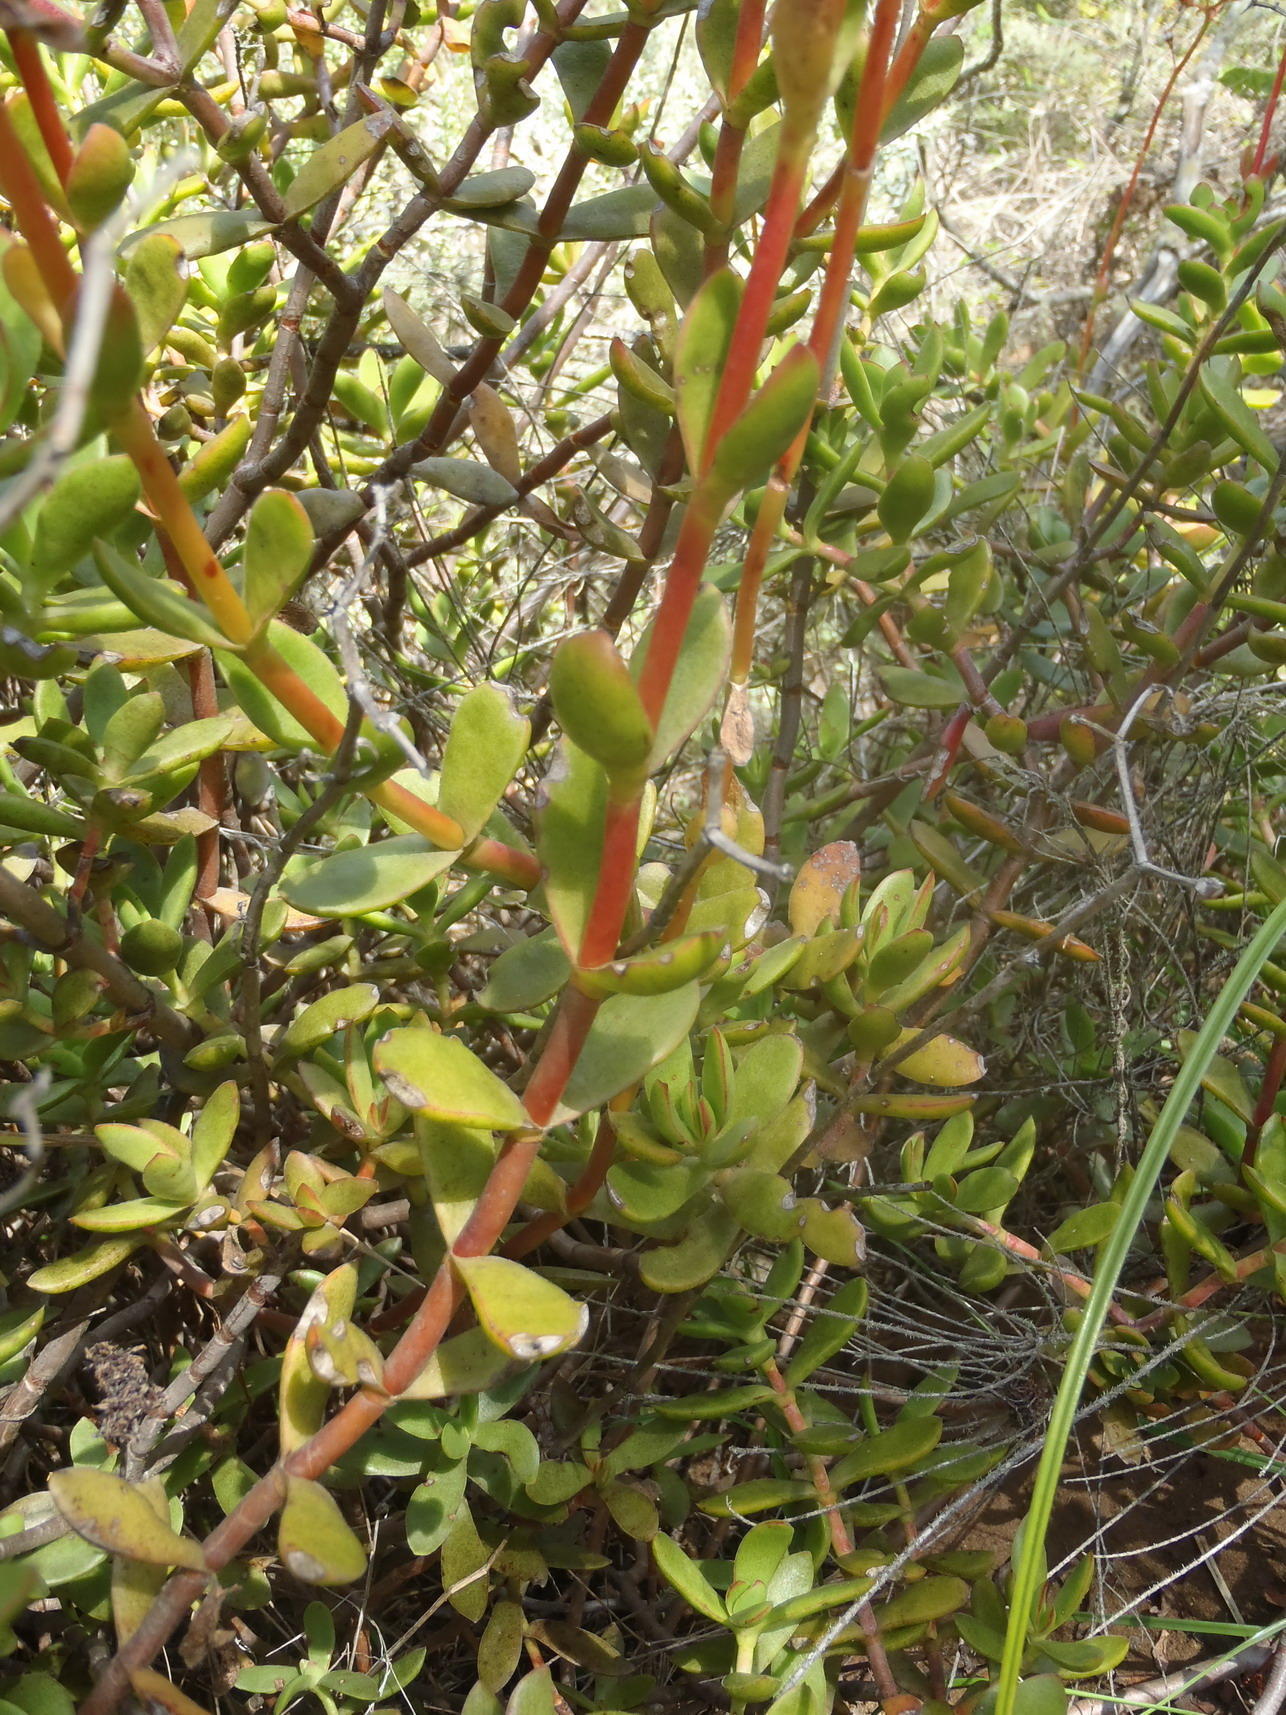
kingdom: Plantae
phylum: Tracheophyta
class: Magnoliopsida
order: Saxifragales
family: Crassulaceae
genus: Crassula
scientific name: Crassula rubricaulis
